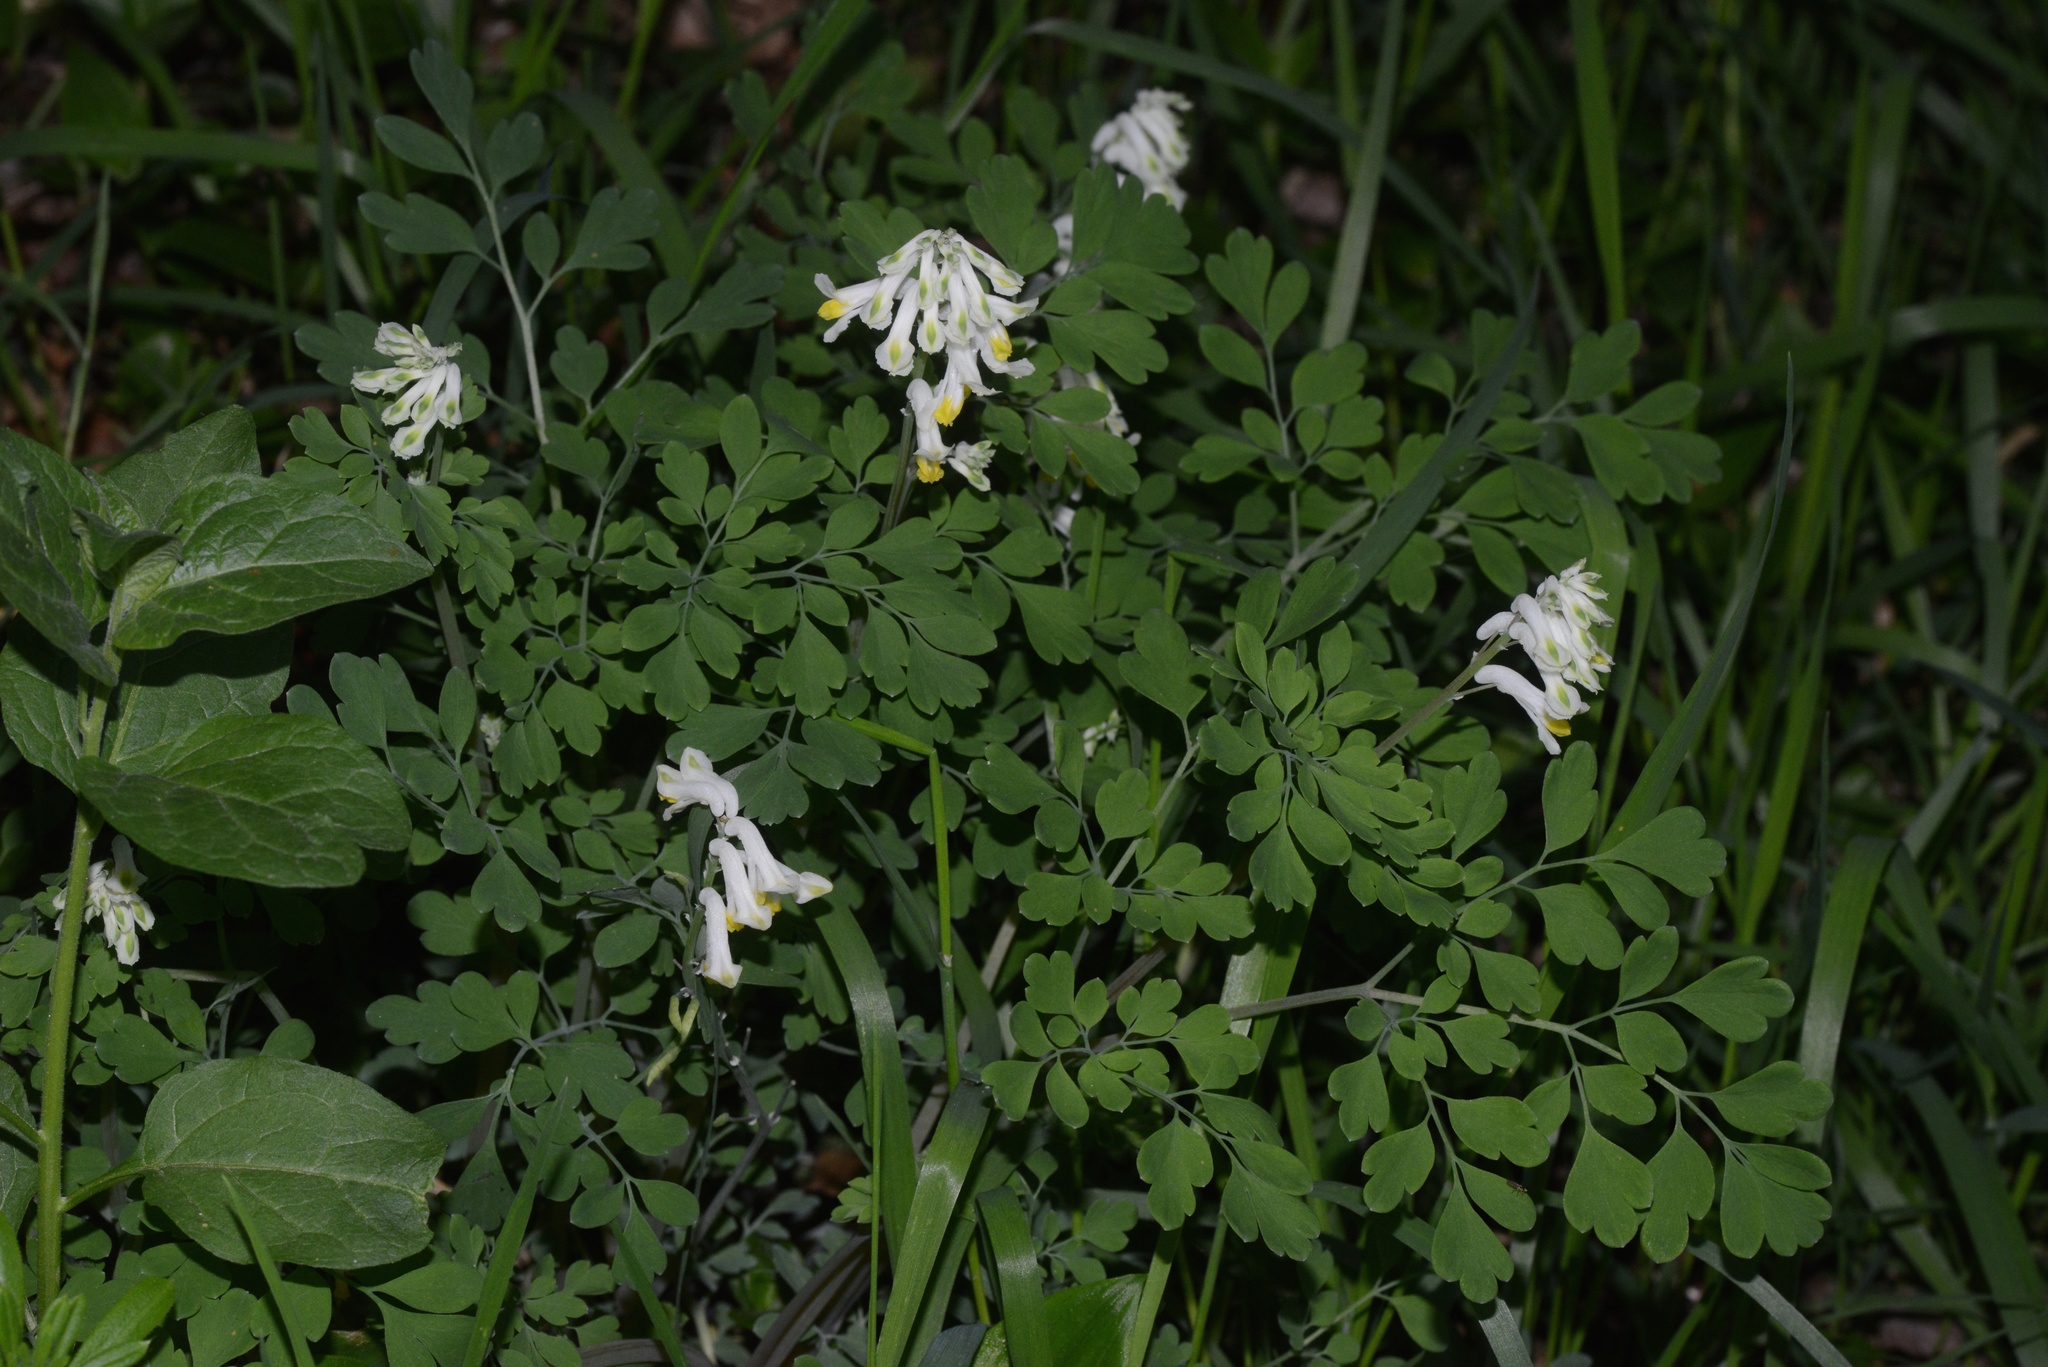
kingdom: Plantae
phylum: Tracheophyta
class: Magnoliopsida
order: Ranunculales
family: Papaveraceae
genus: Pseudofumaria
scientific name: Pseudofumaria alba
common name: Pale corydalis
